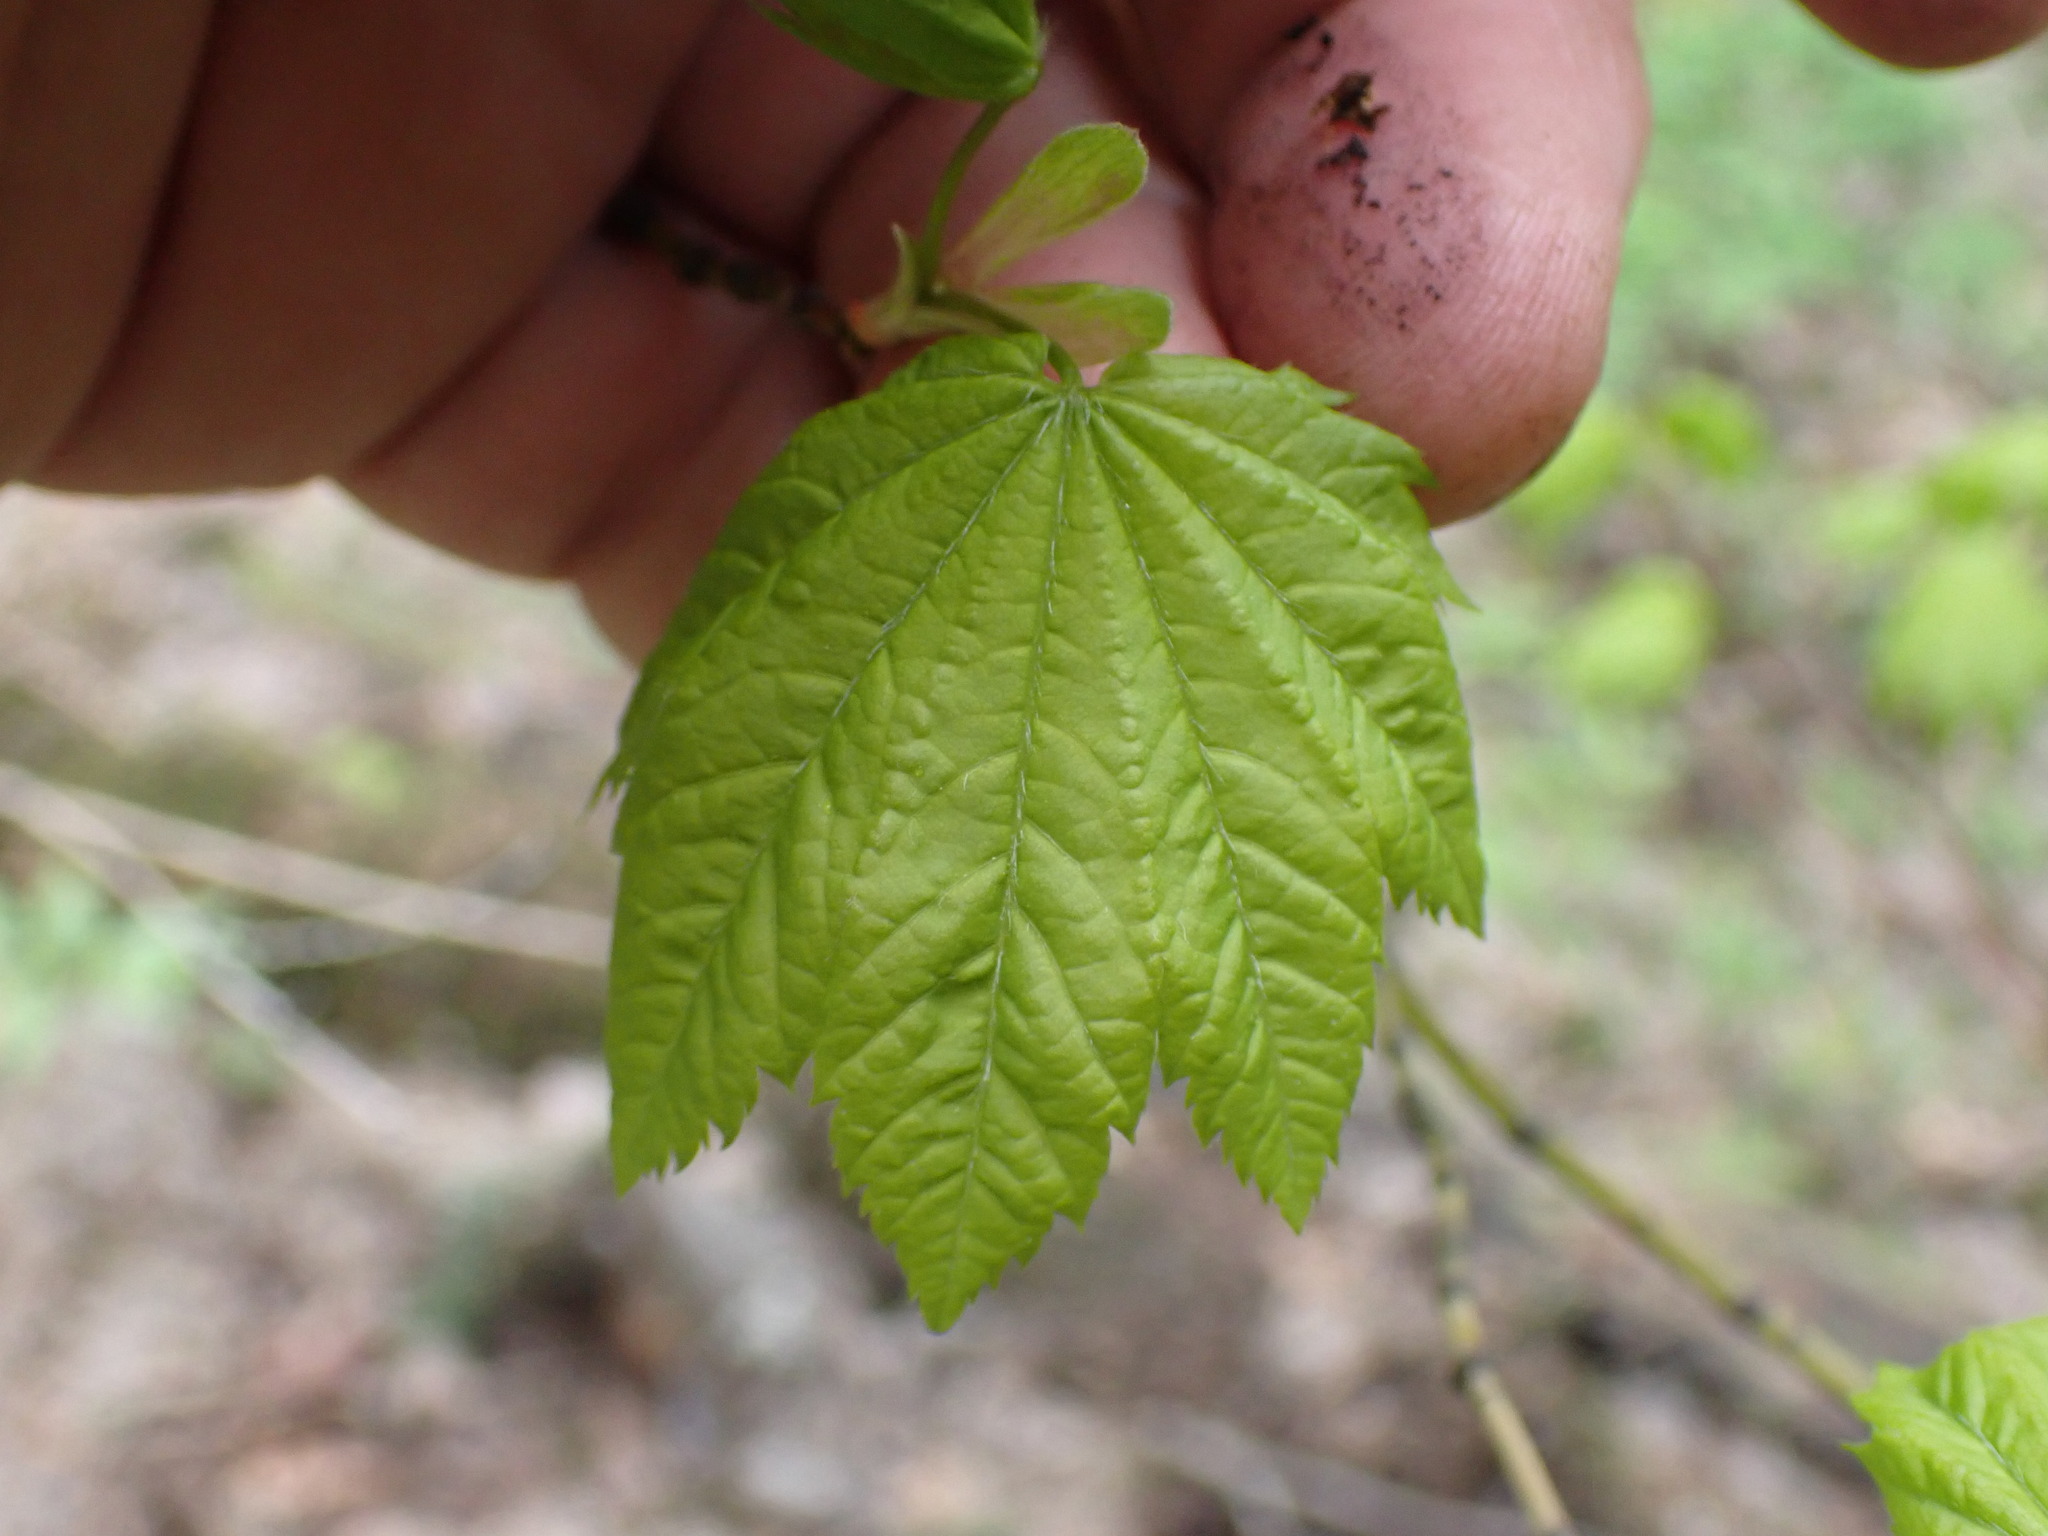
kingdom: Plantae
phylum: Tracheophyta
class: Magnoliopsida
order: Sapindales
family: Sapindaceae
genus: Acer
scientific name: Acer circinatum
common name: Vine maple
